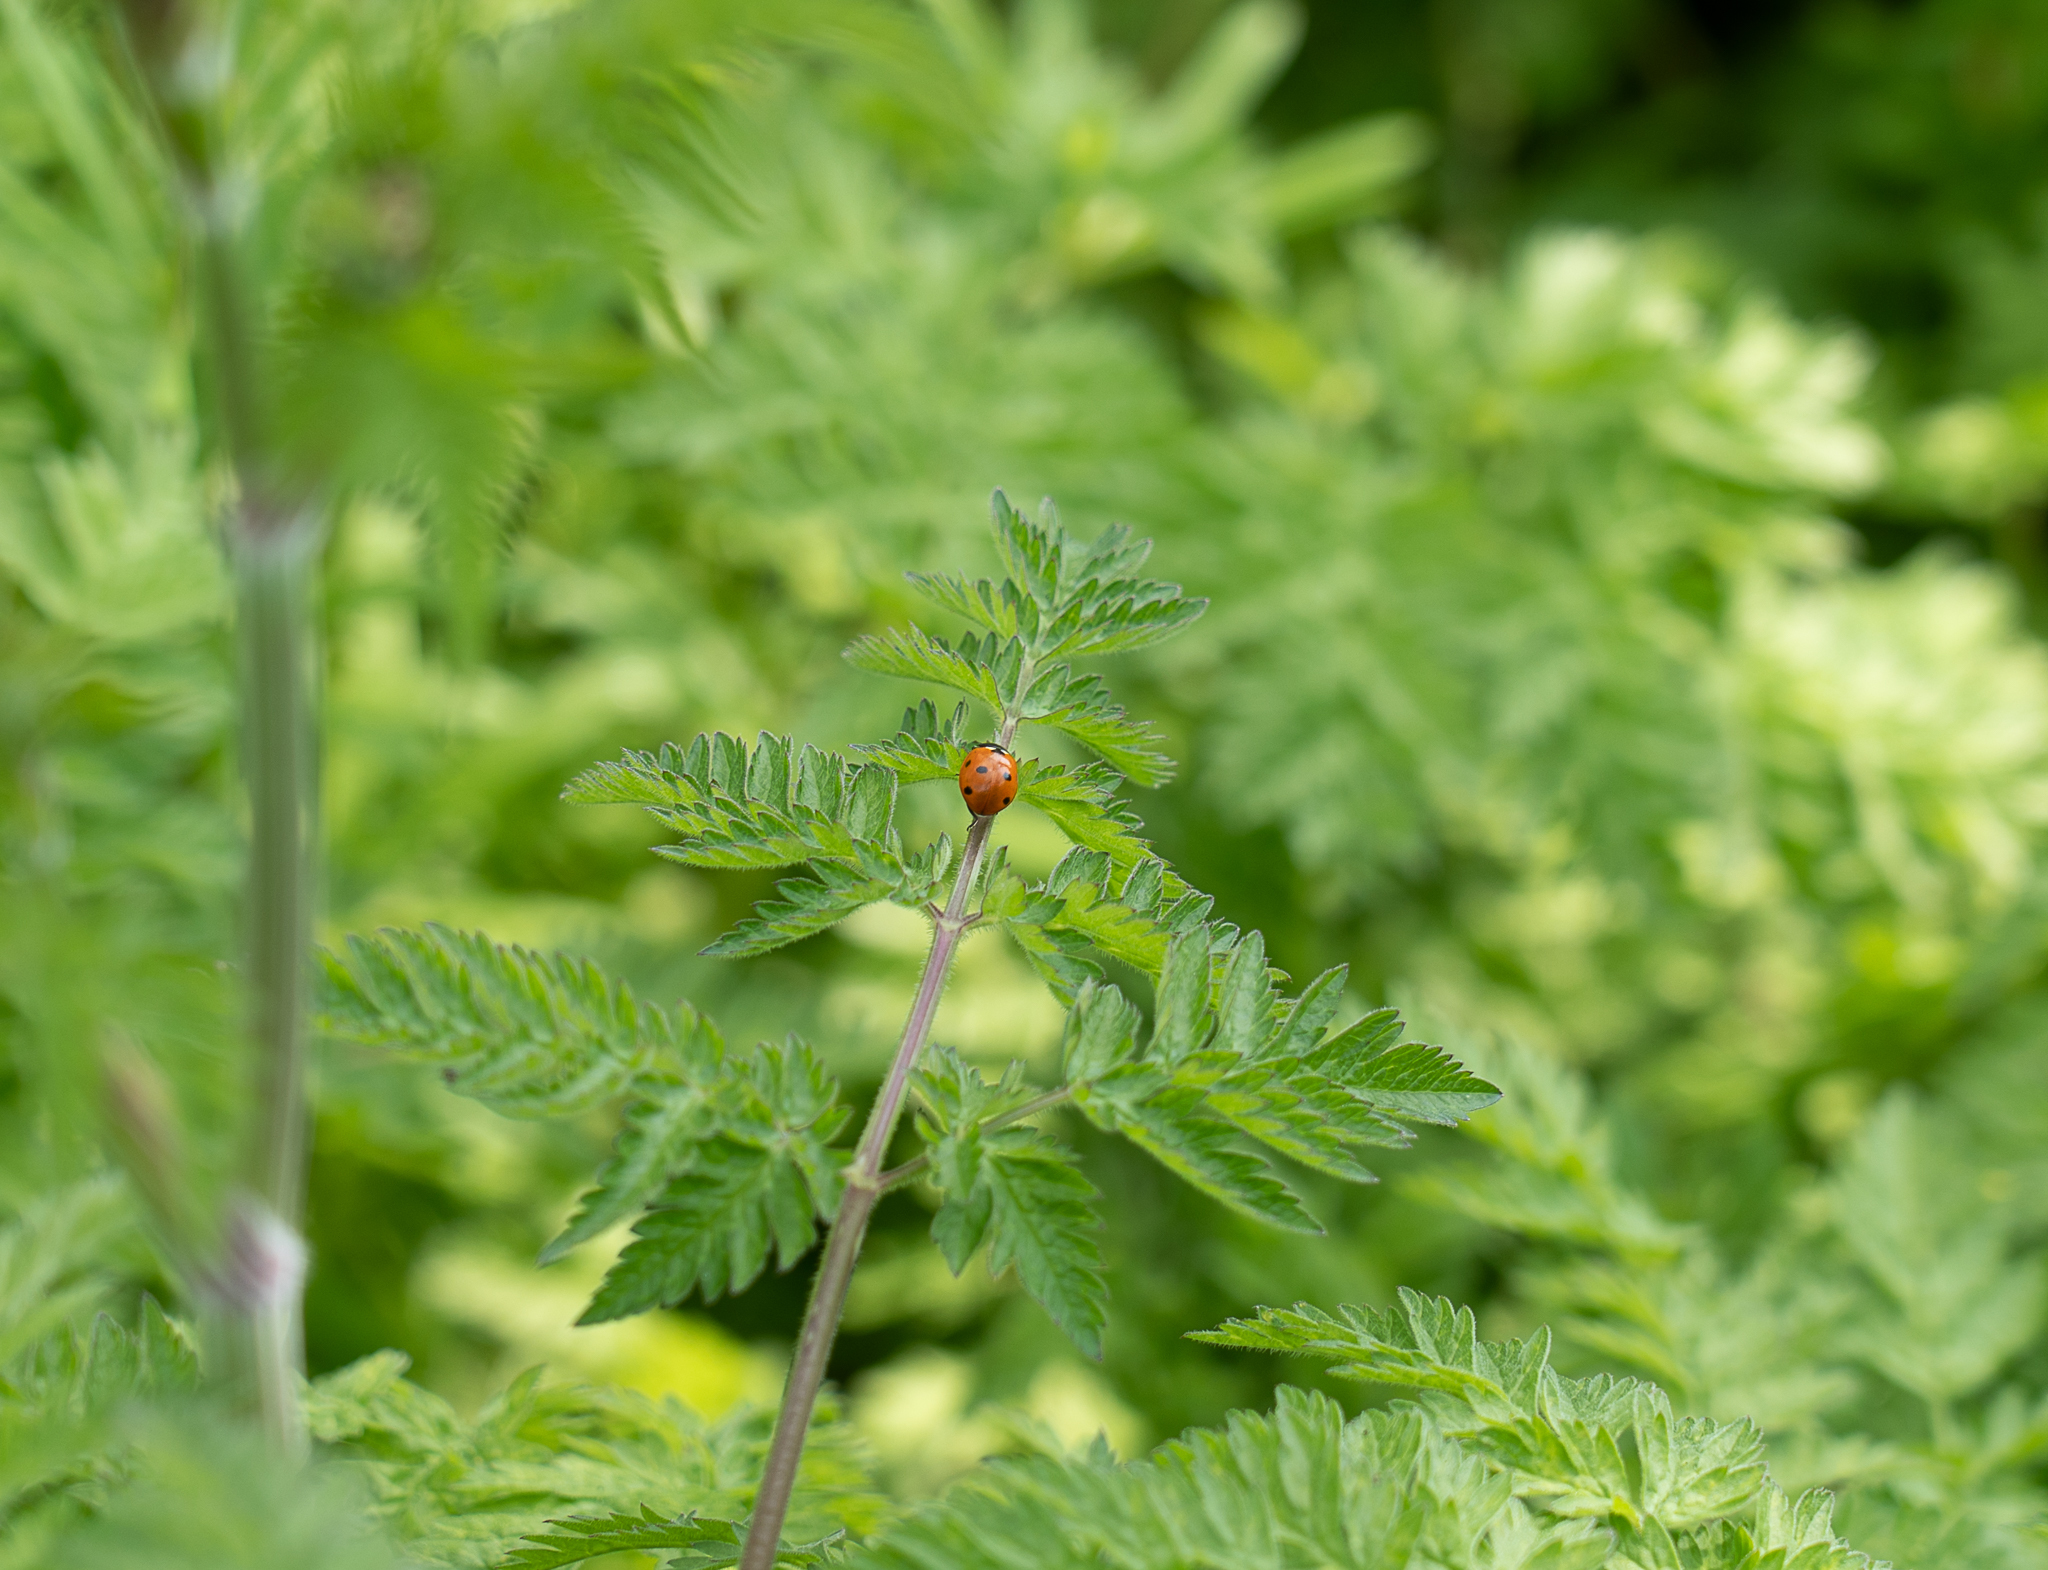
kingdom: Animalia
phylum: Arthropoda
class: Insecta
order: Coleoptera
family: Coccinellidae
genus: Coccinella
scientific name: Coccinella septempunctata
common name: Sevenspotted lady beetle
